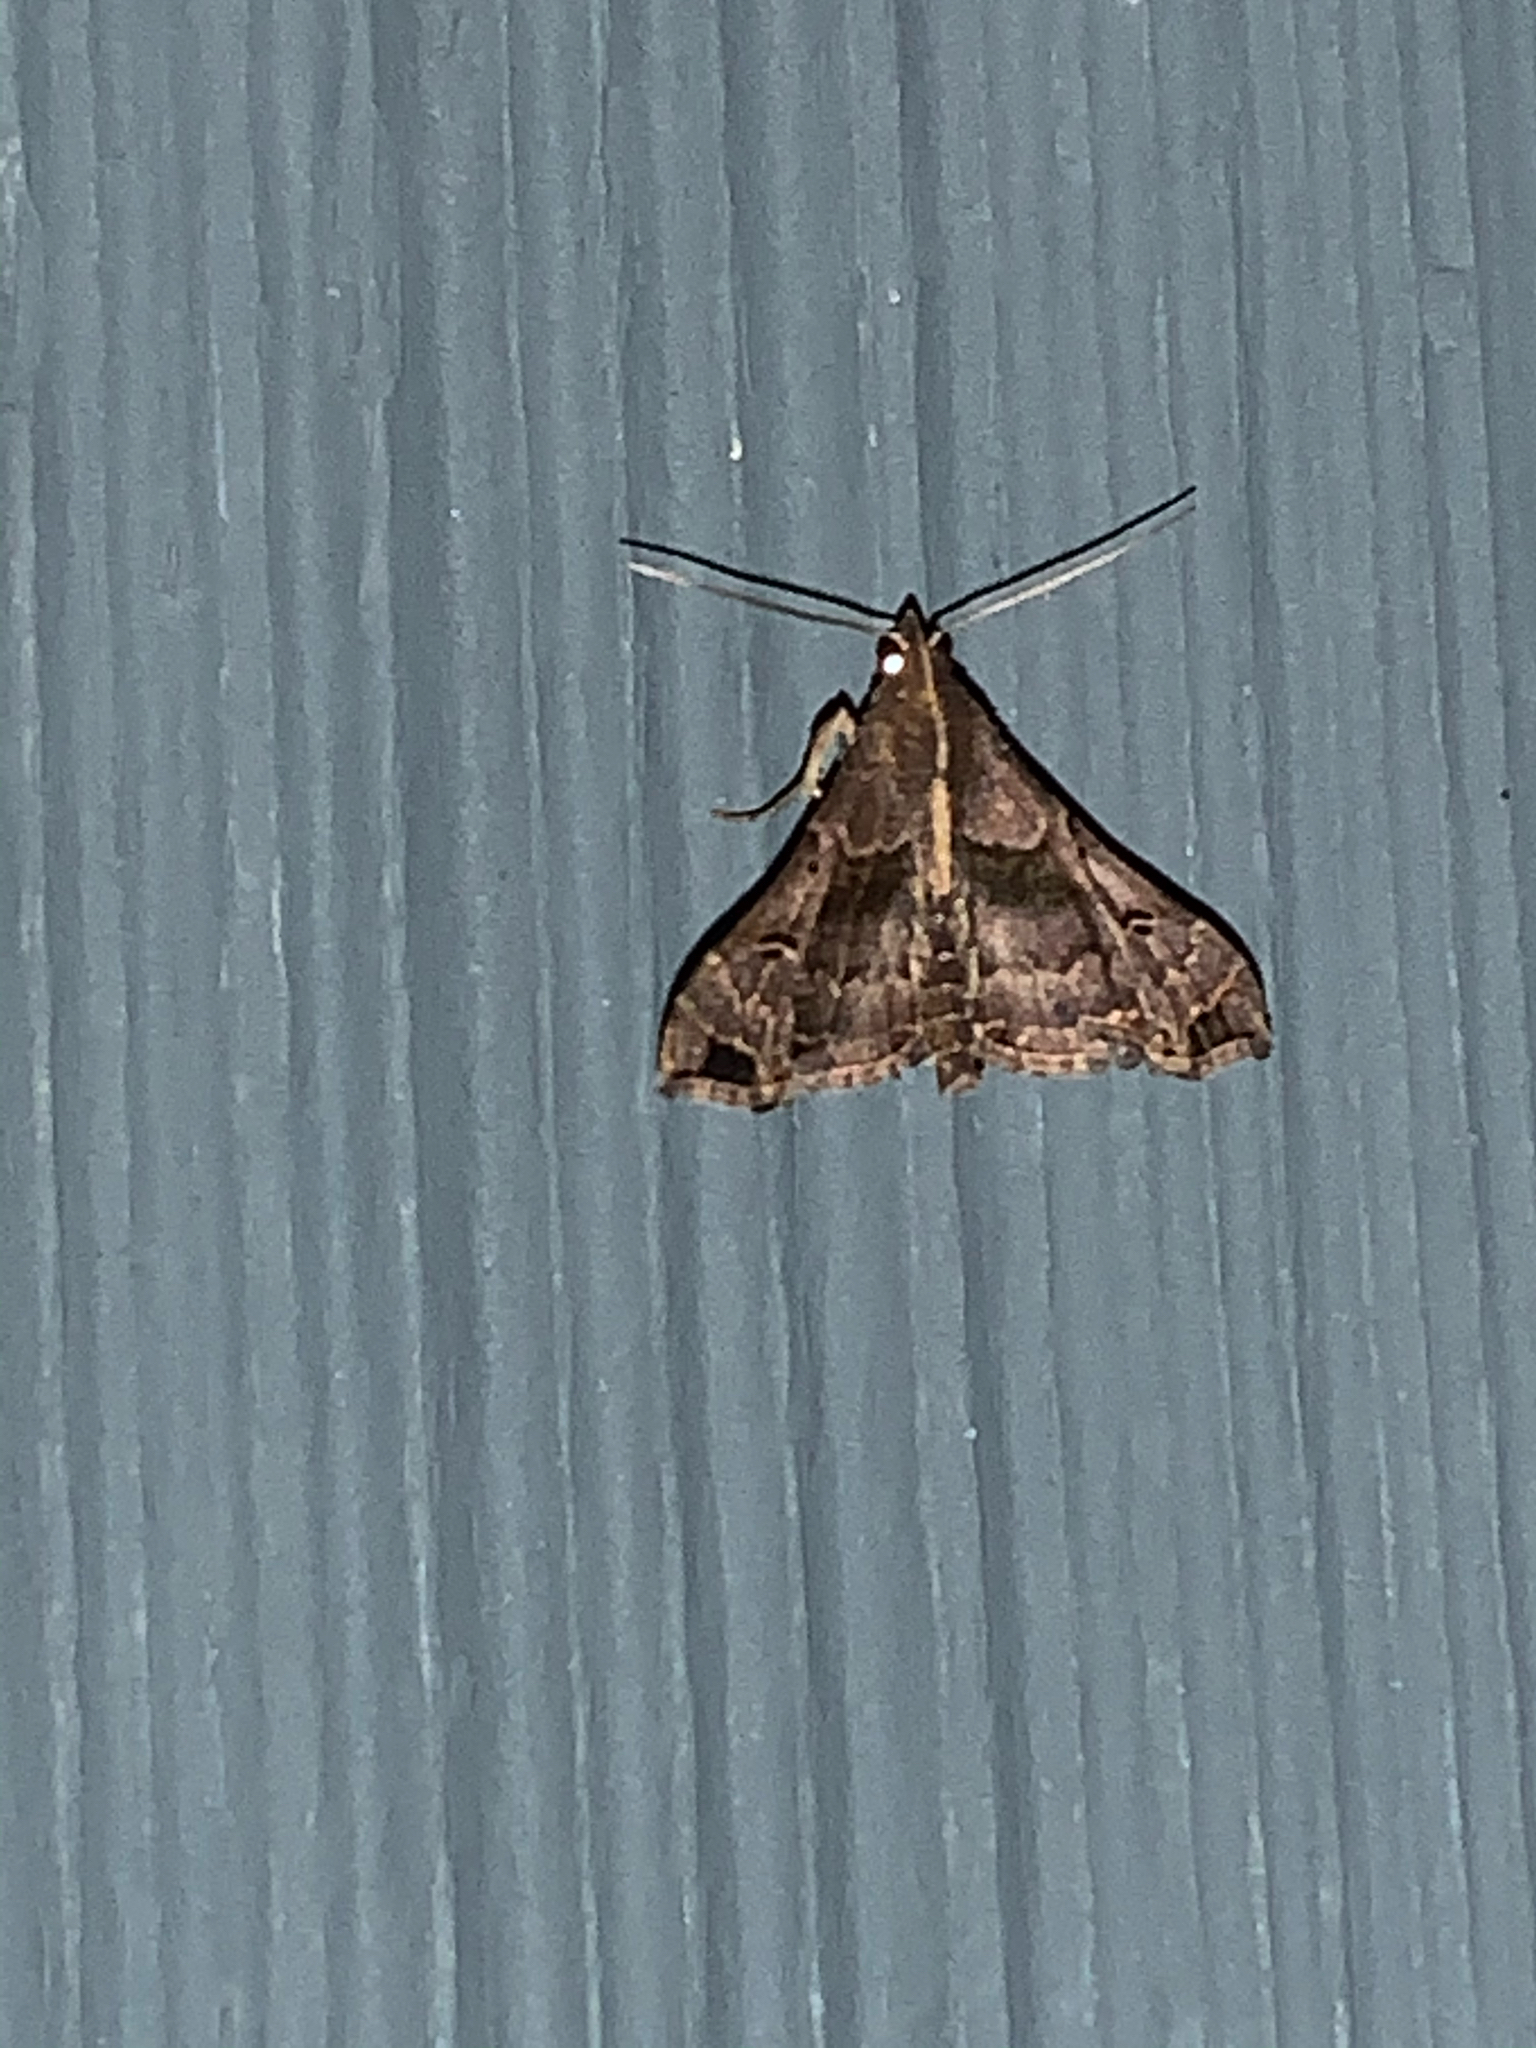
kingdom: Animalia
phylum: Arthropoda
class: Insecta
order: Lepidoptera
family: Erebidae
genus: Palthis
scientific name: Palthis asopialis
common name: Faint-spotted palthis moth
